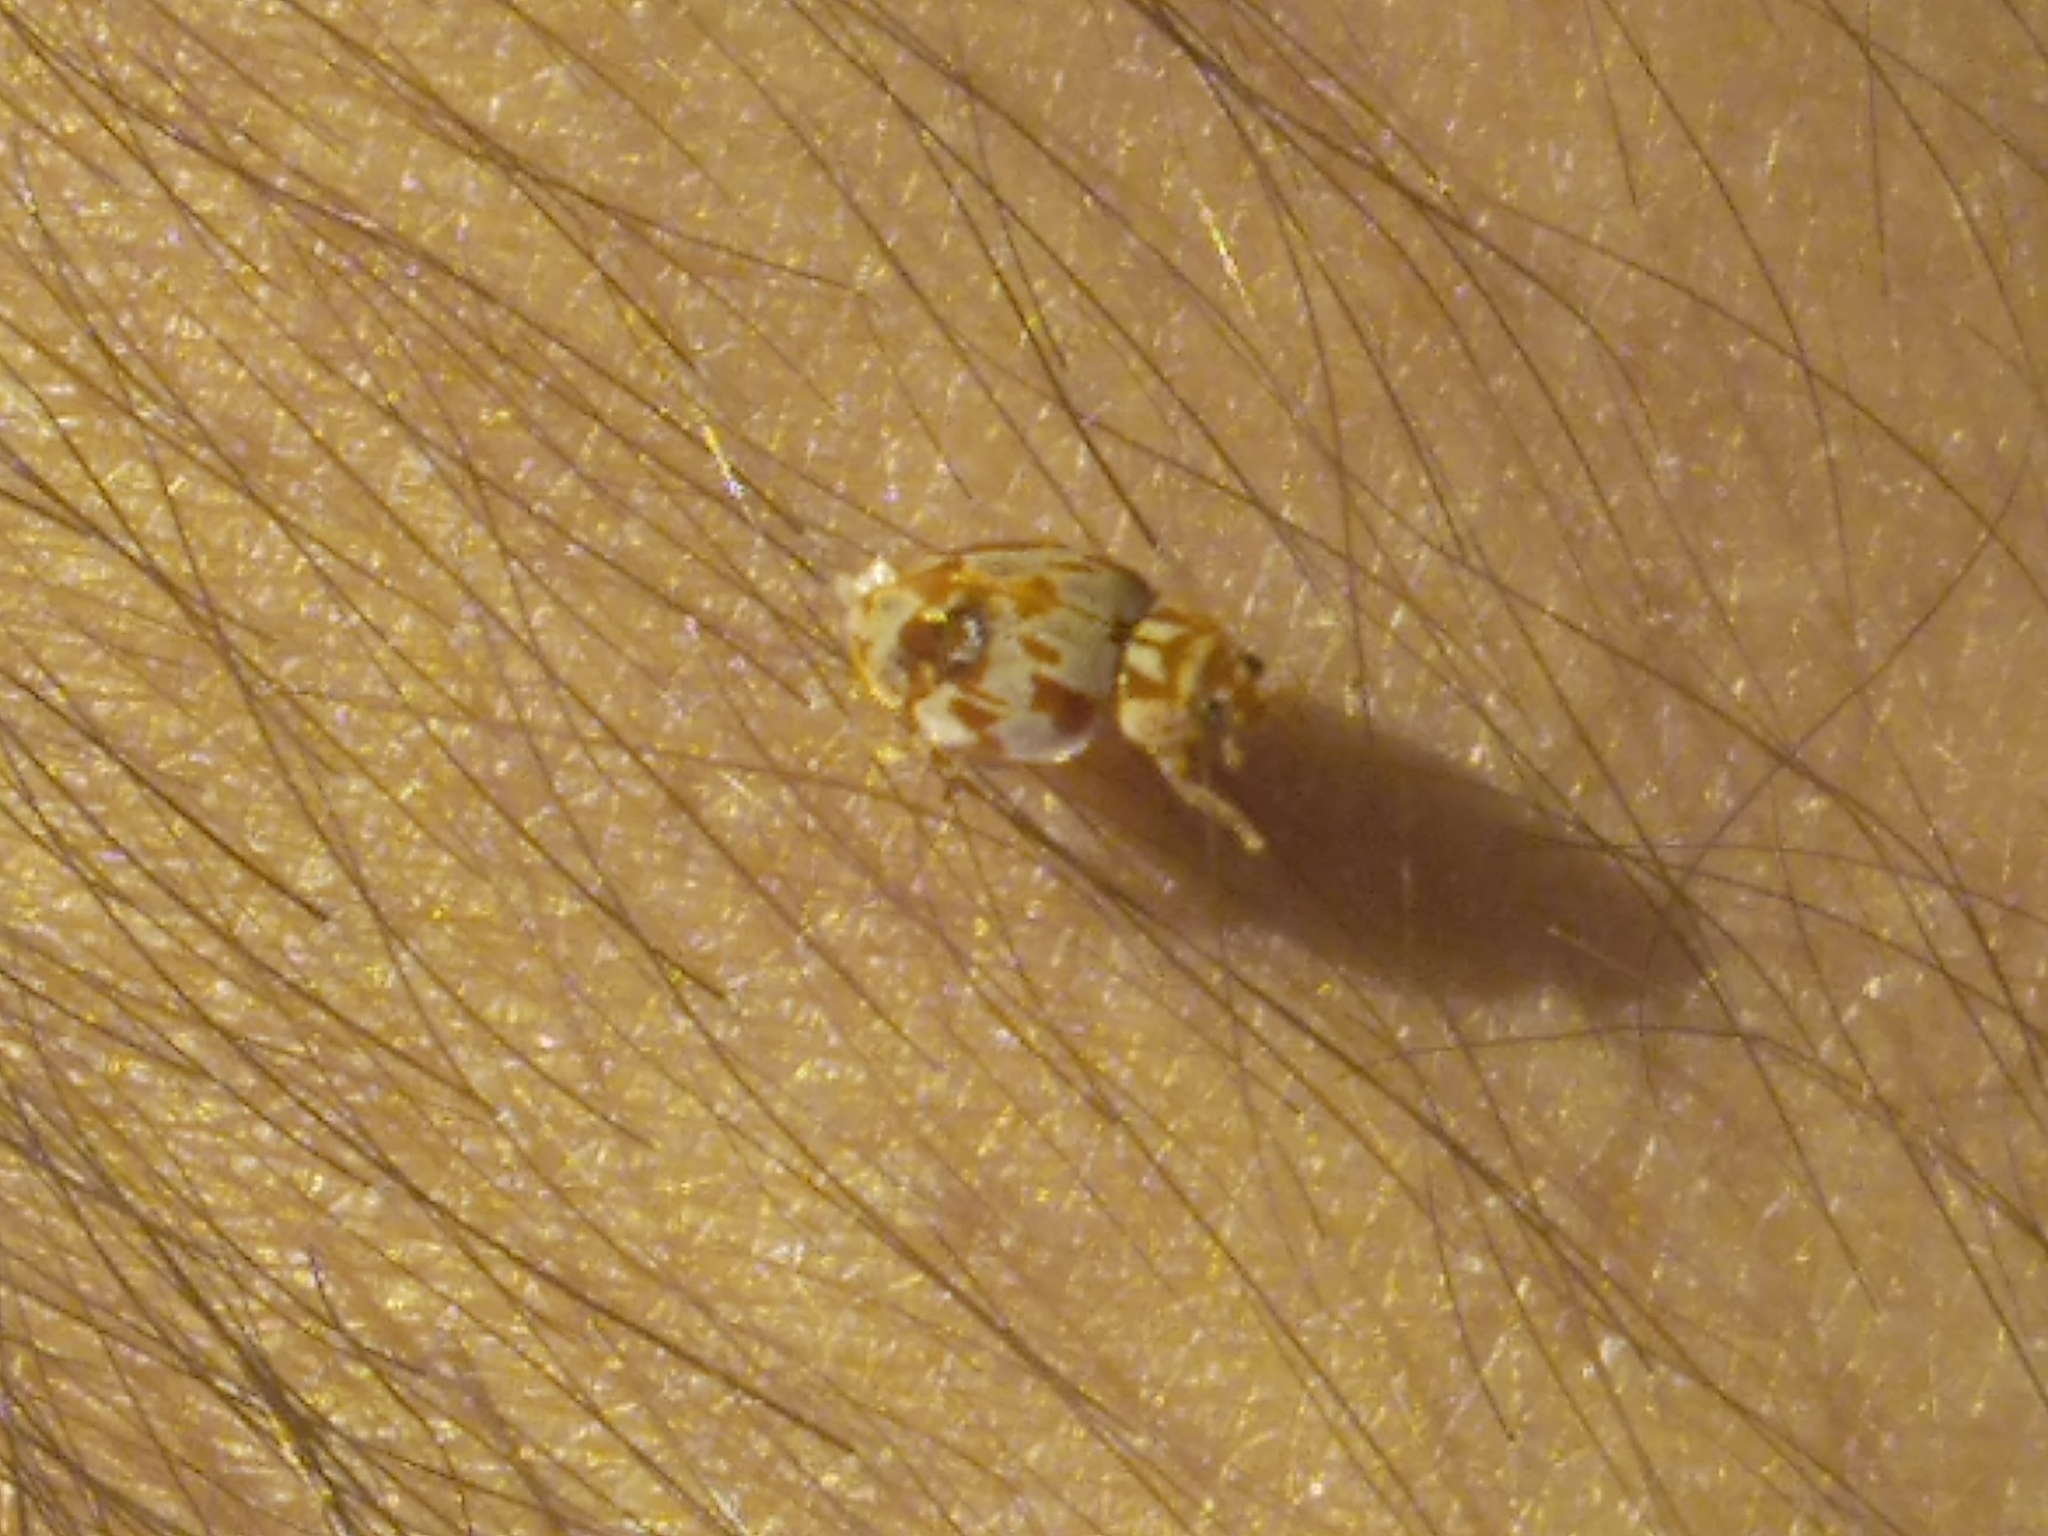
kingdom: Animalia
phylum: Arthropoda
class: Insecta
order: Coleoptera
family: Coccinellidae
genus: Myrrha
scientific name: Myrrha octodecimguttata
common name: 18-spot ladybird
